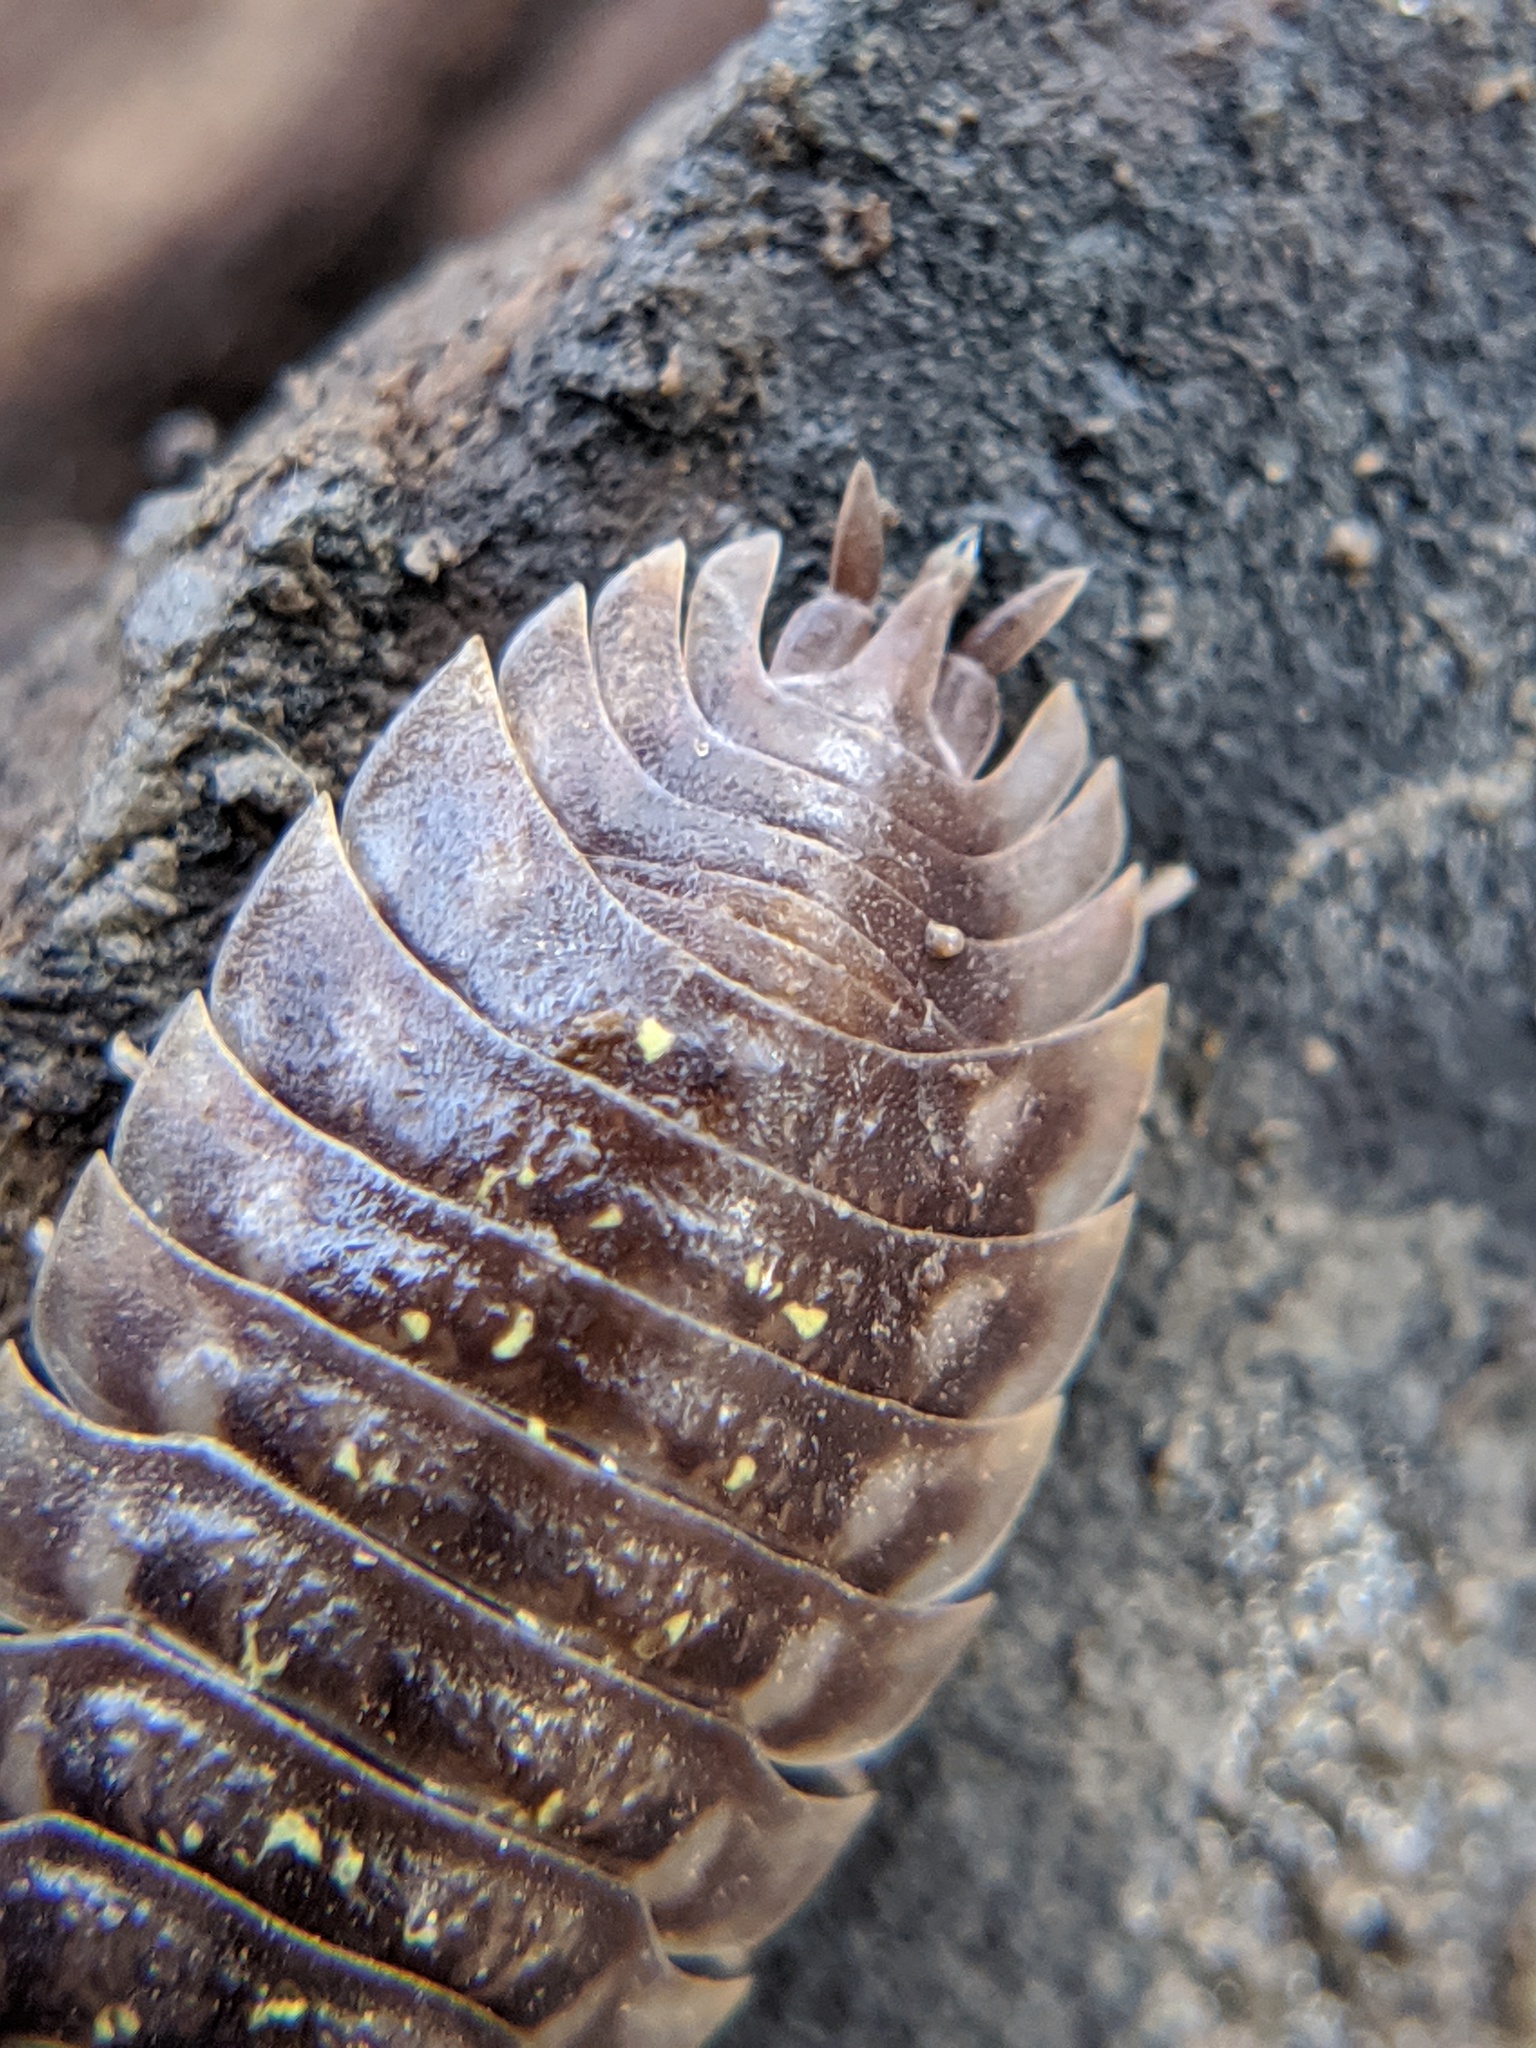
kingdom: Animalia
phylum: Arthropoda
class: Malacostraca
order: Isopoda
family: Oniscidae
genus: Oniscus
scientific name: Oniscus asellus
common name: Common shiny woodlouse
